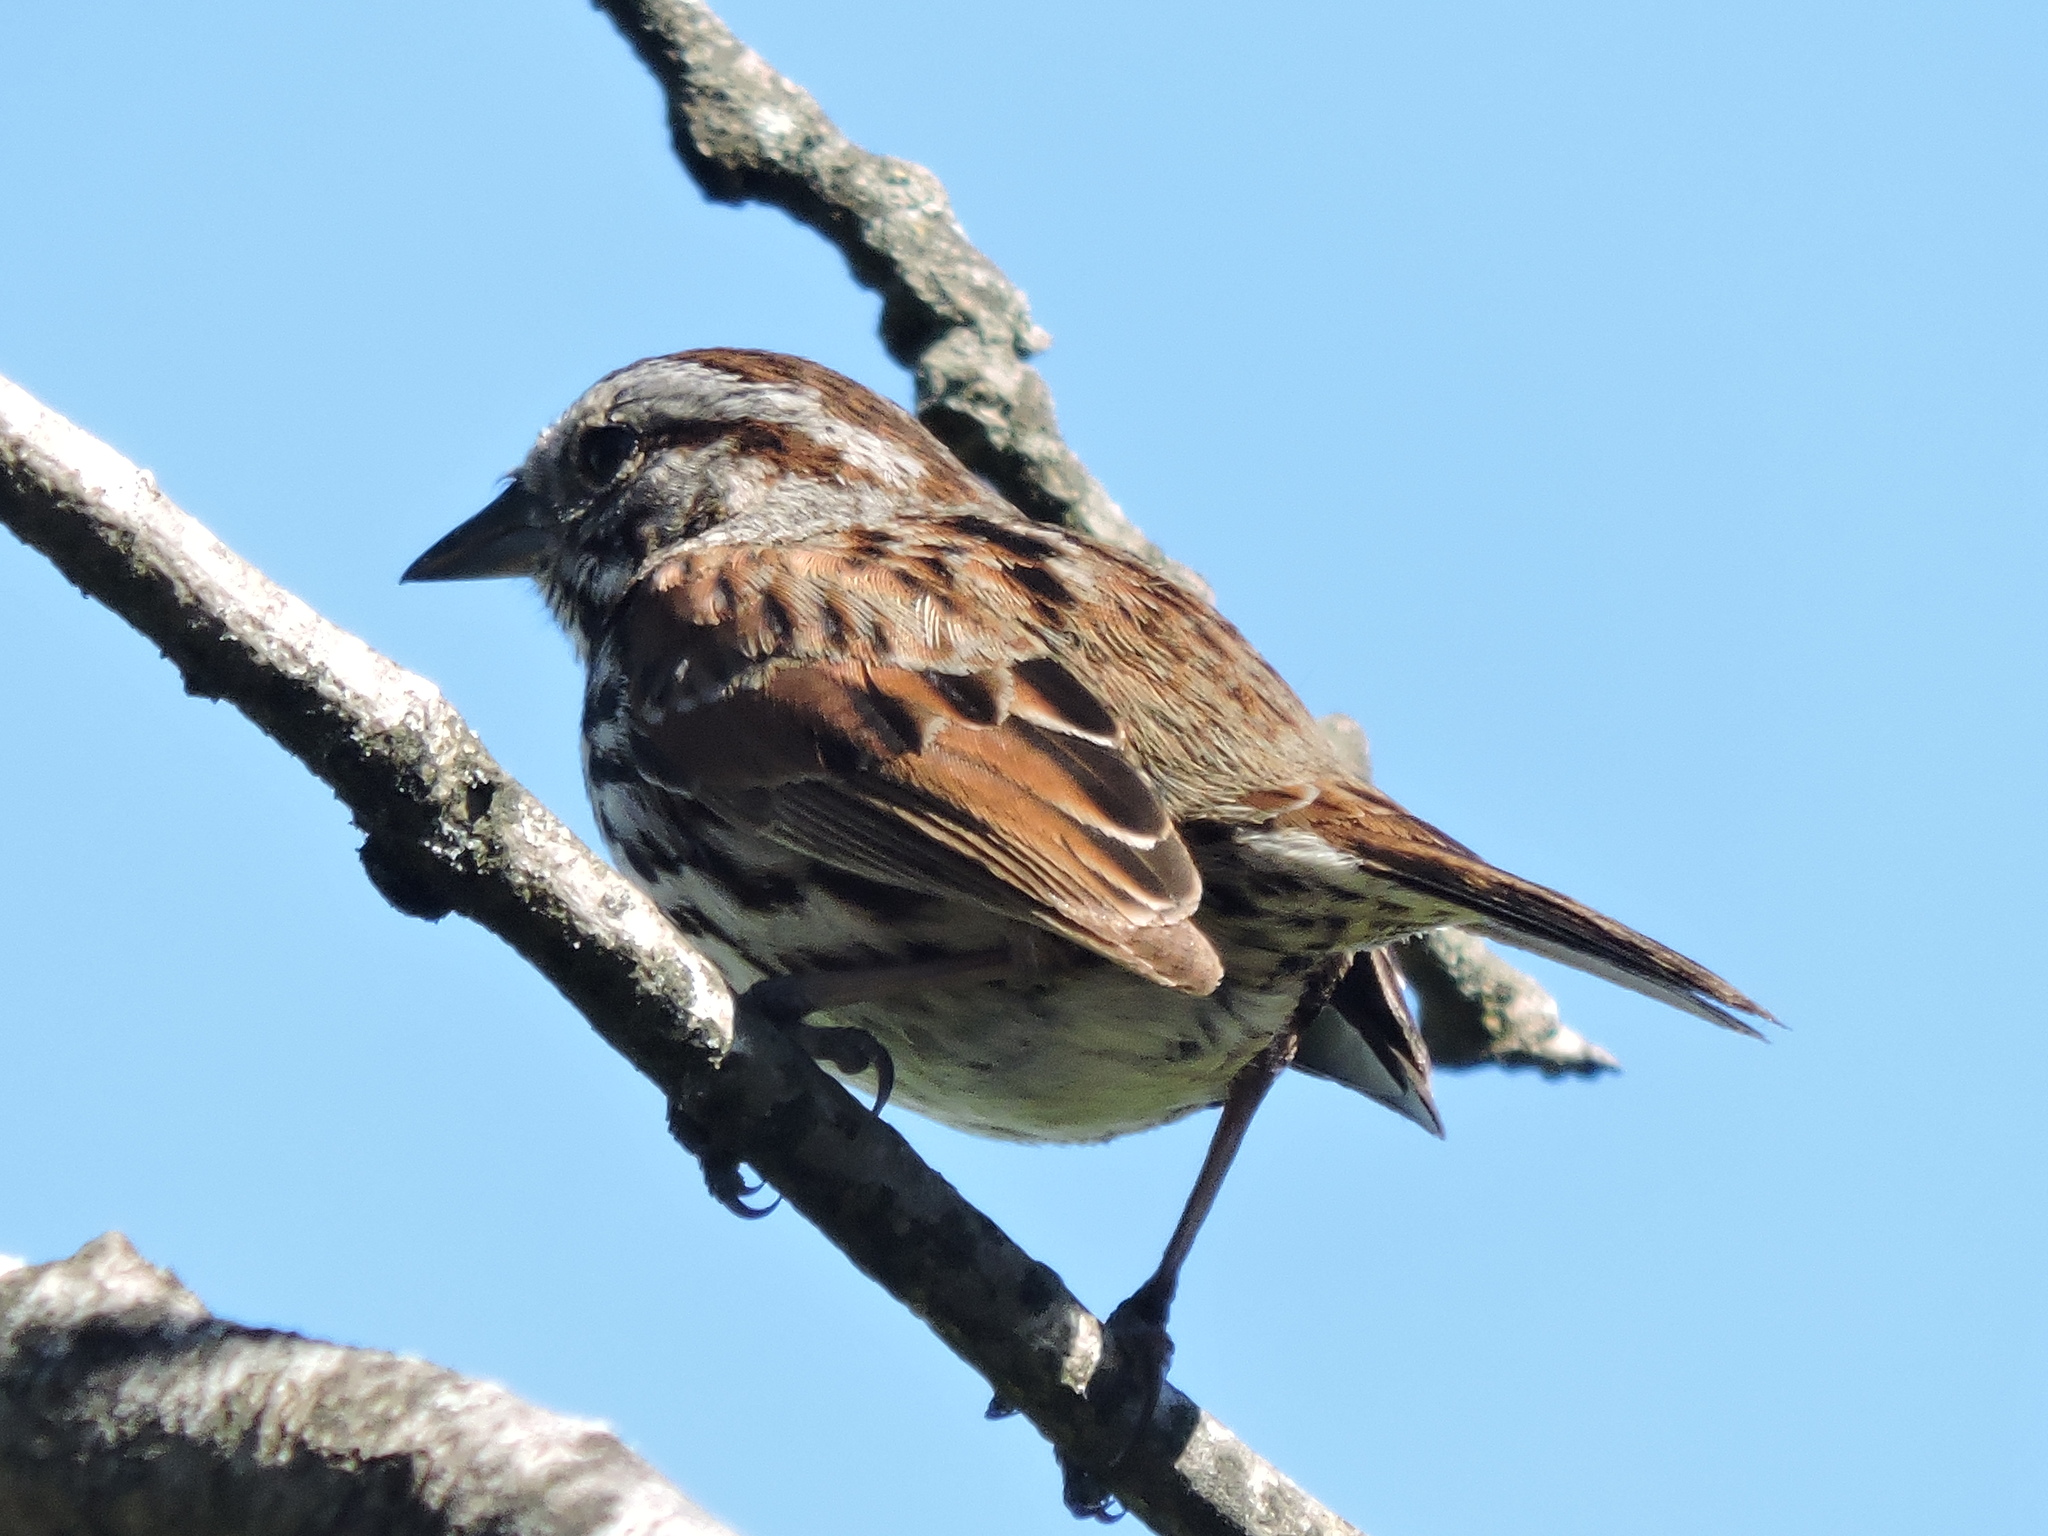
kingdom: Animalia
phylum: Chordata
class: Aves
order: Passeriformes
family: Passerellidae
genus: Melospiza
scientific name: Melospiza melodia
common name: Song sparrow
